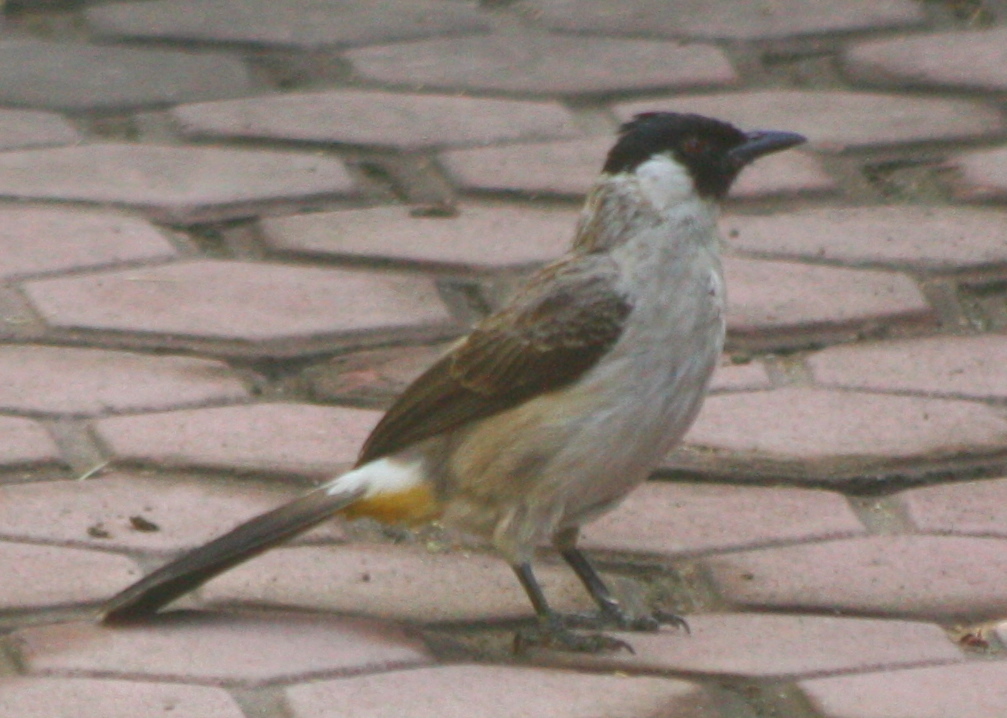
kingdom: Animalia
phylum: Chordata
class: Aves
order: Passeriformes
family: Pycnonotidae
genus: Pycnonotus
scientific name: Pycnonotus aurigaster
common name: Sooty-headed bulbul
